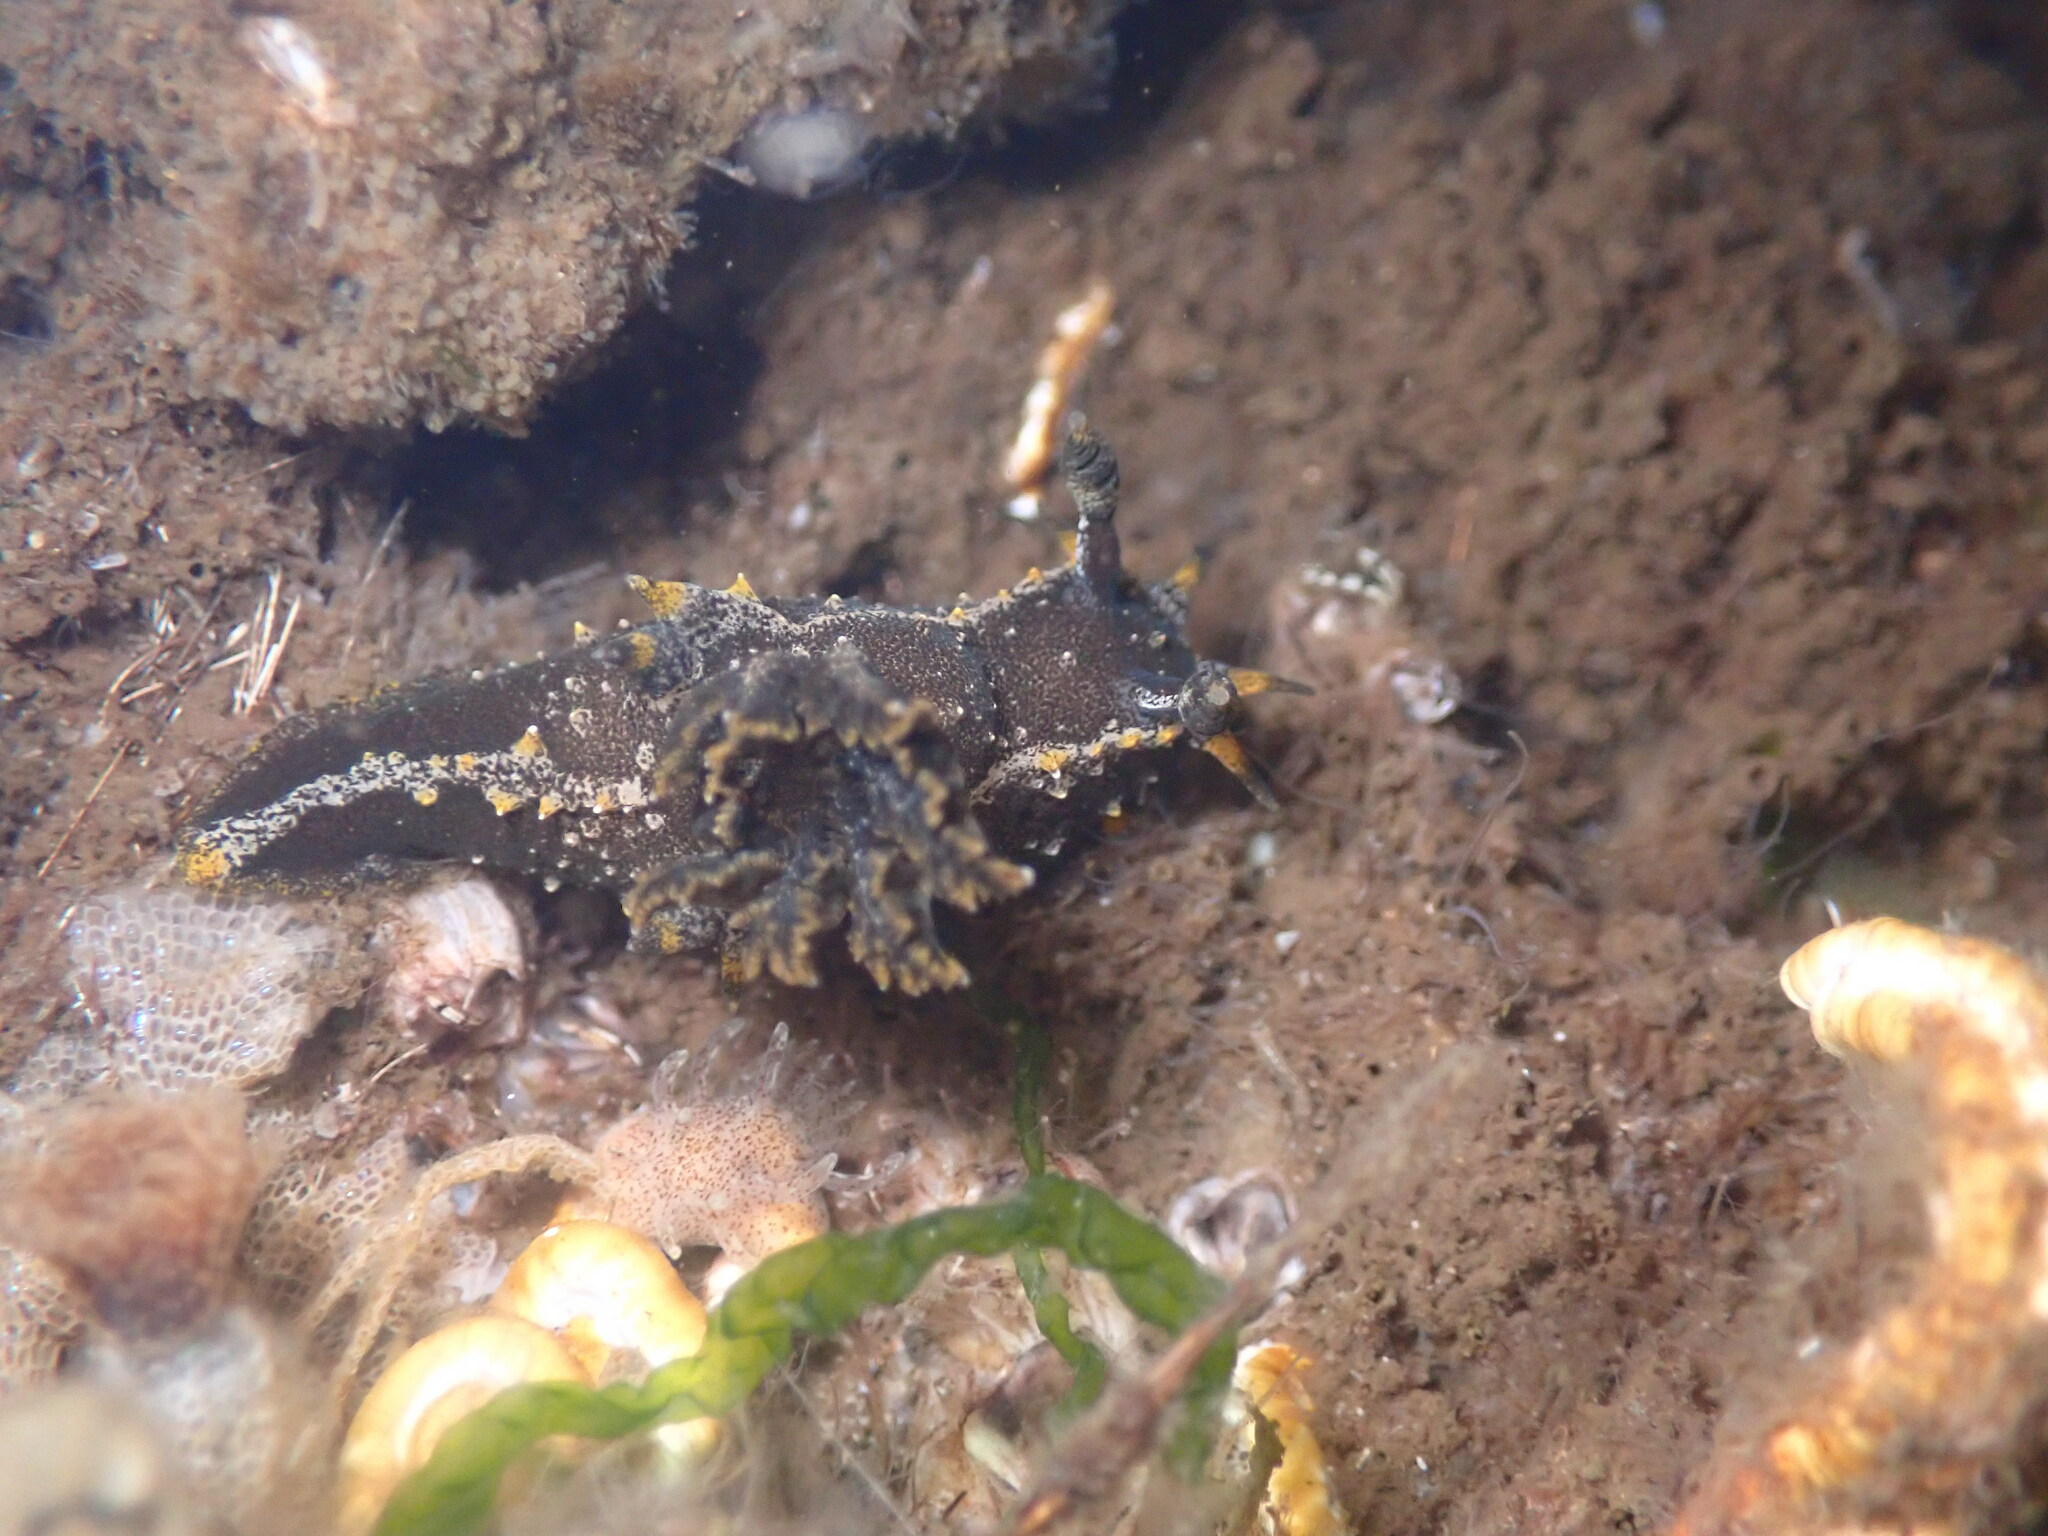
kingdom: Animalia
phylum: Mollusca
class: Gastropoda
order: Nudibranchia
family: Polyceridae
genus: Polycera
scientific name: Polycera hedgpethi
